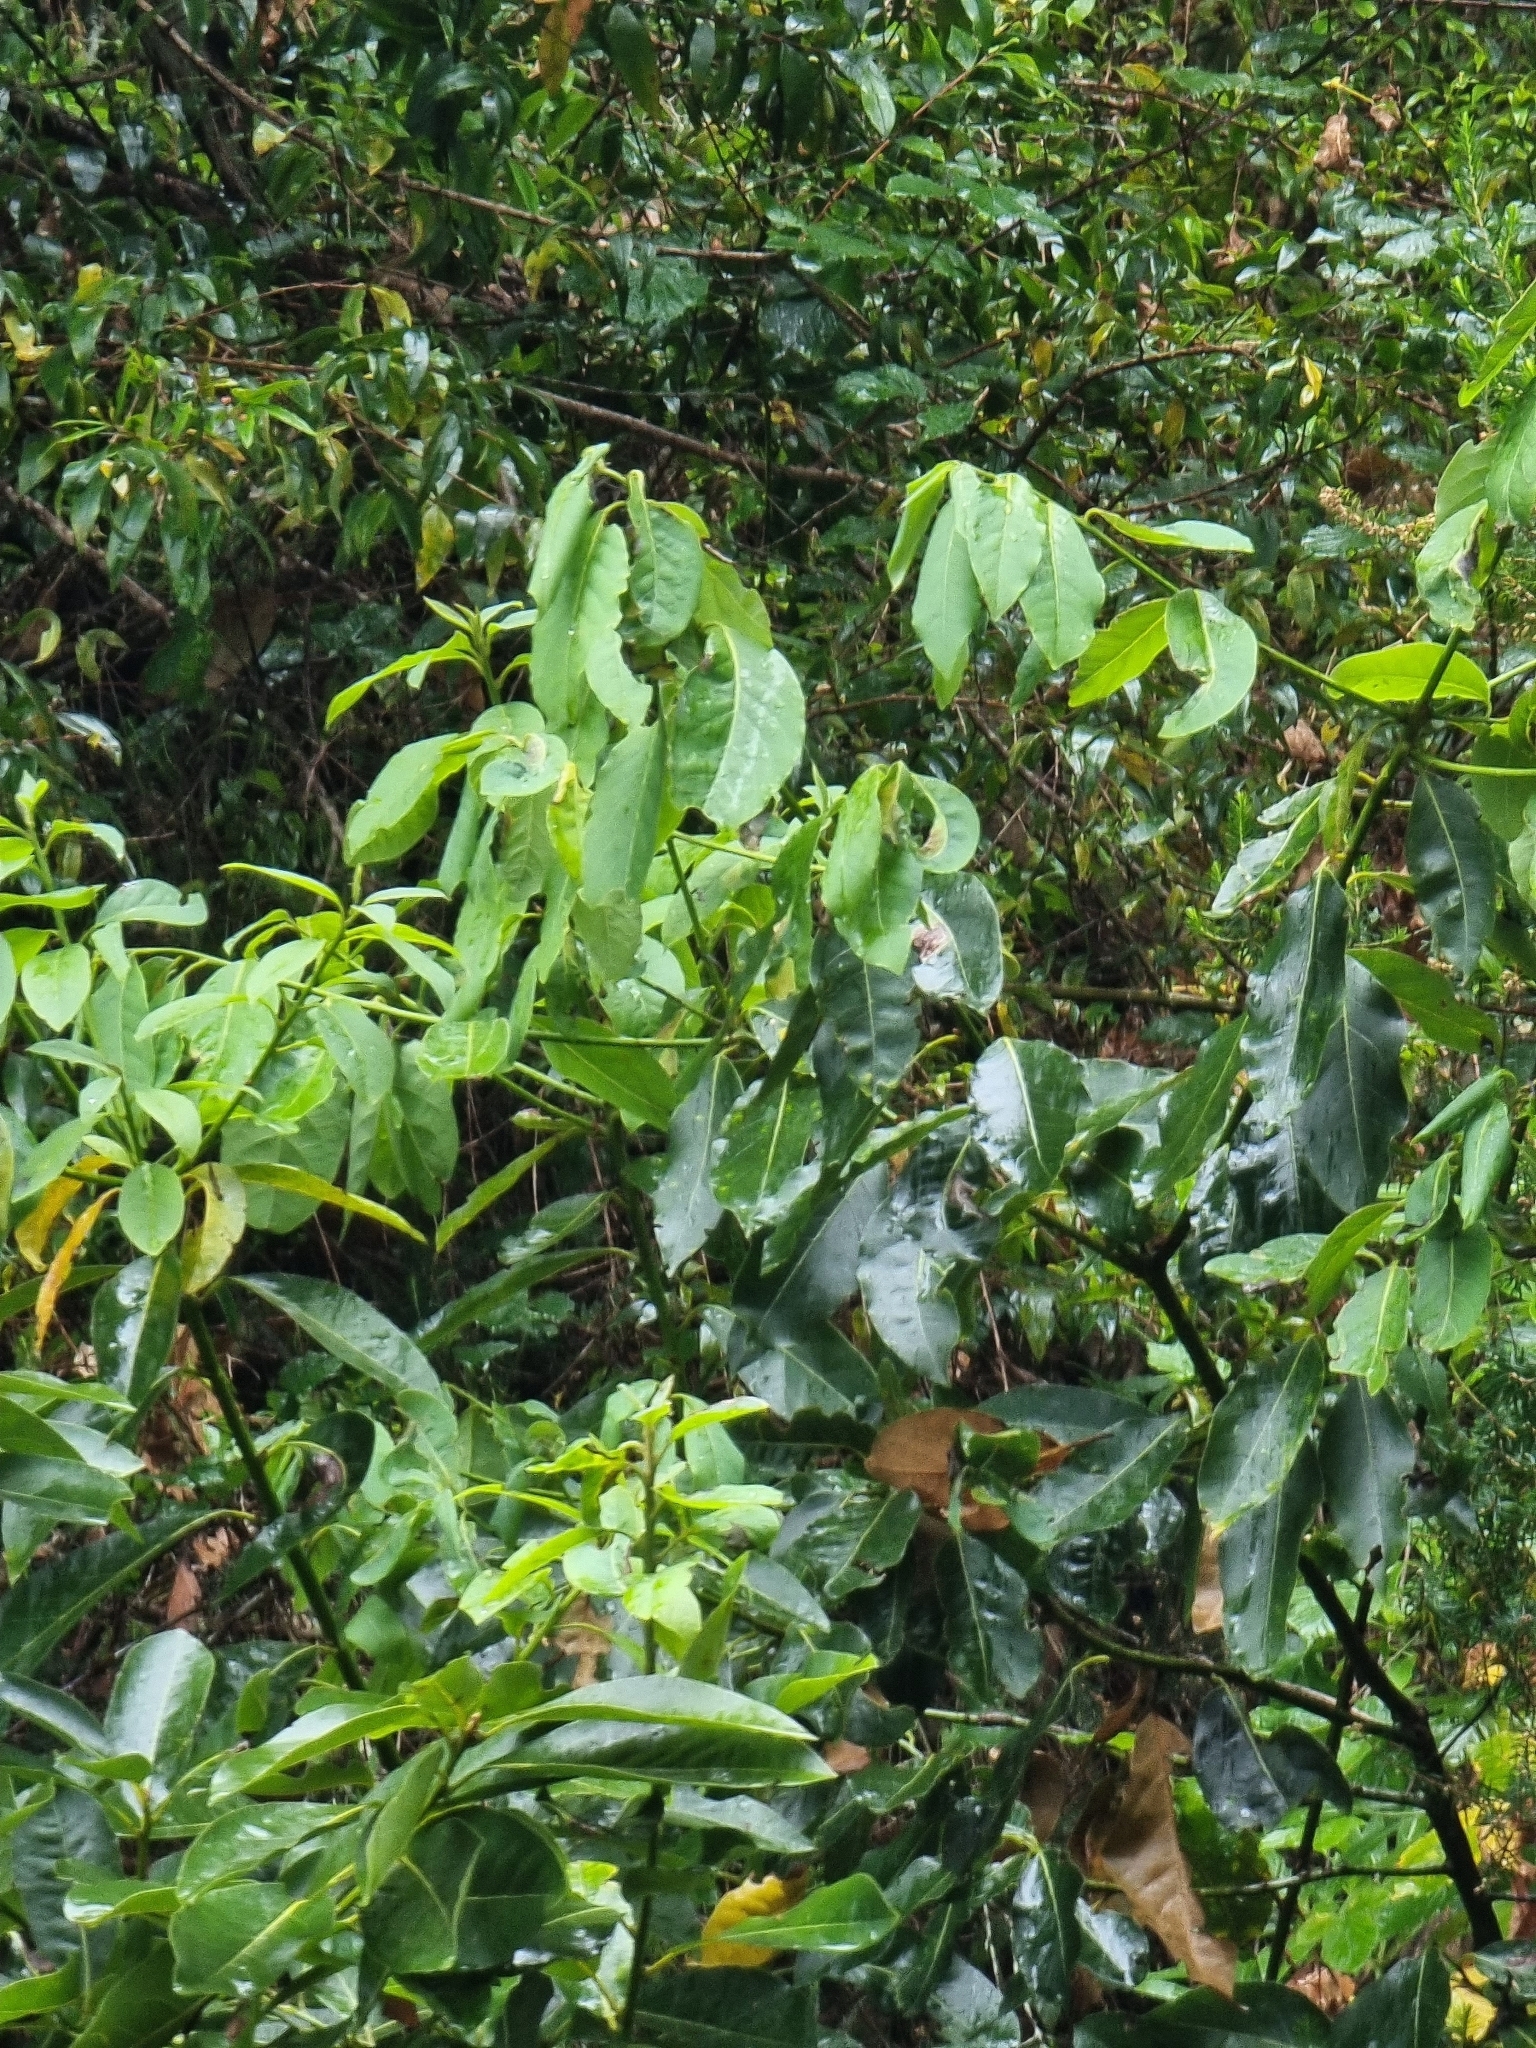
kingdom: Plantae
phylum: Tracheophyta
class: Magnoliopsida
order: Laurales
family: Lauraceae
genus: Laurus
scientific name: Laurus novocanariensis
